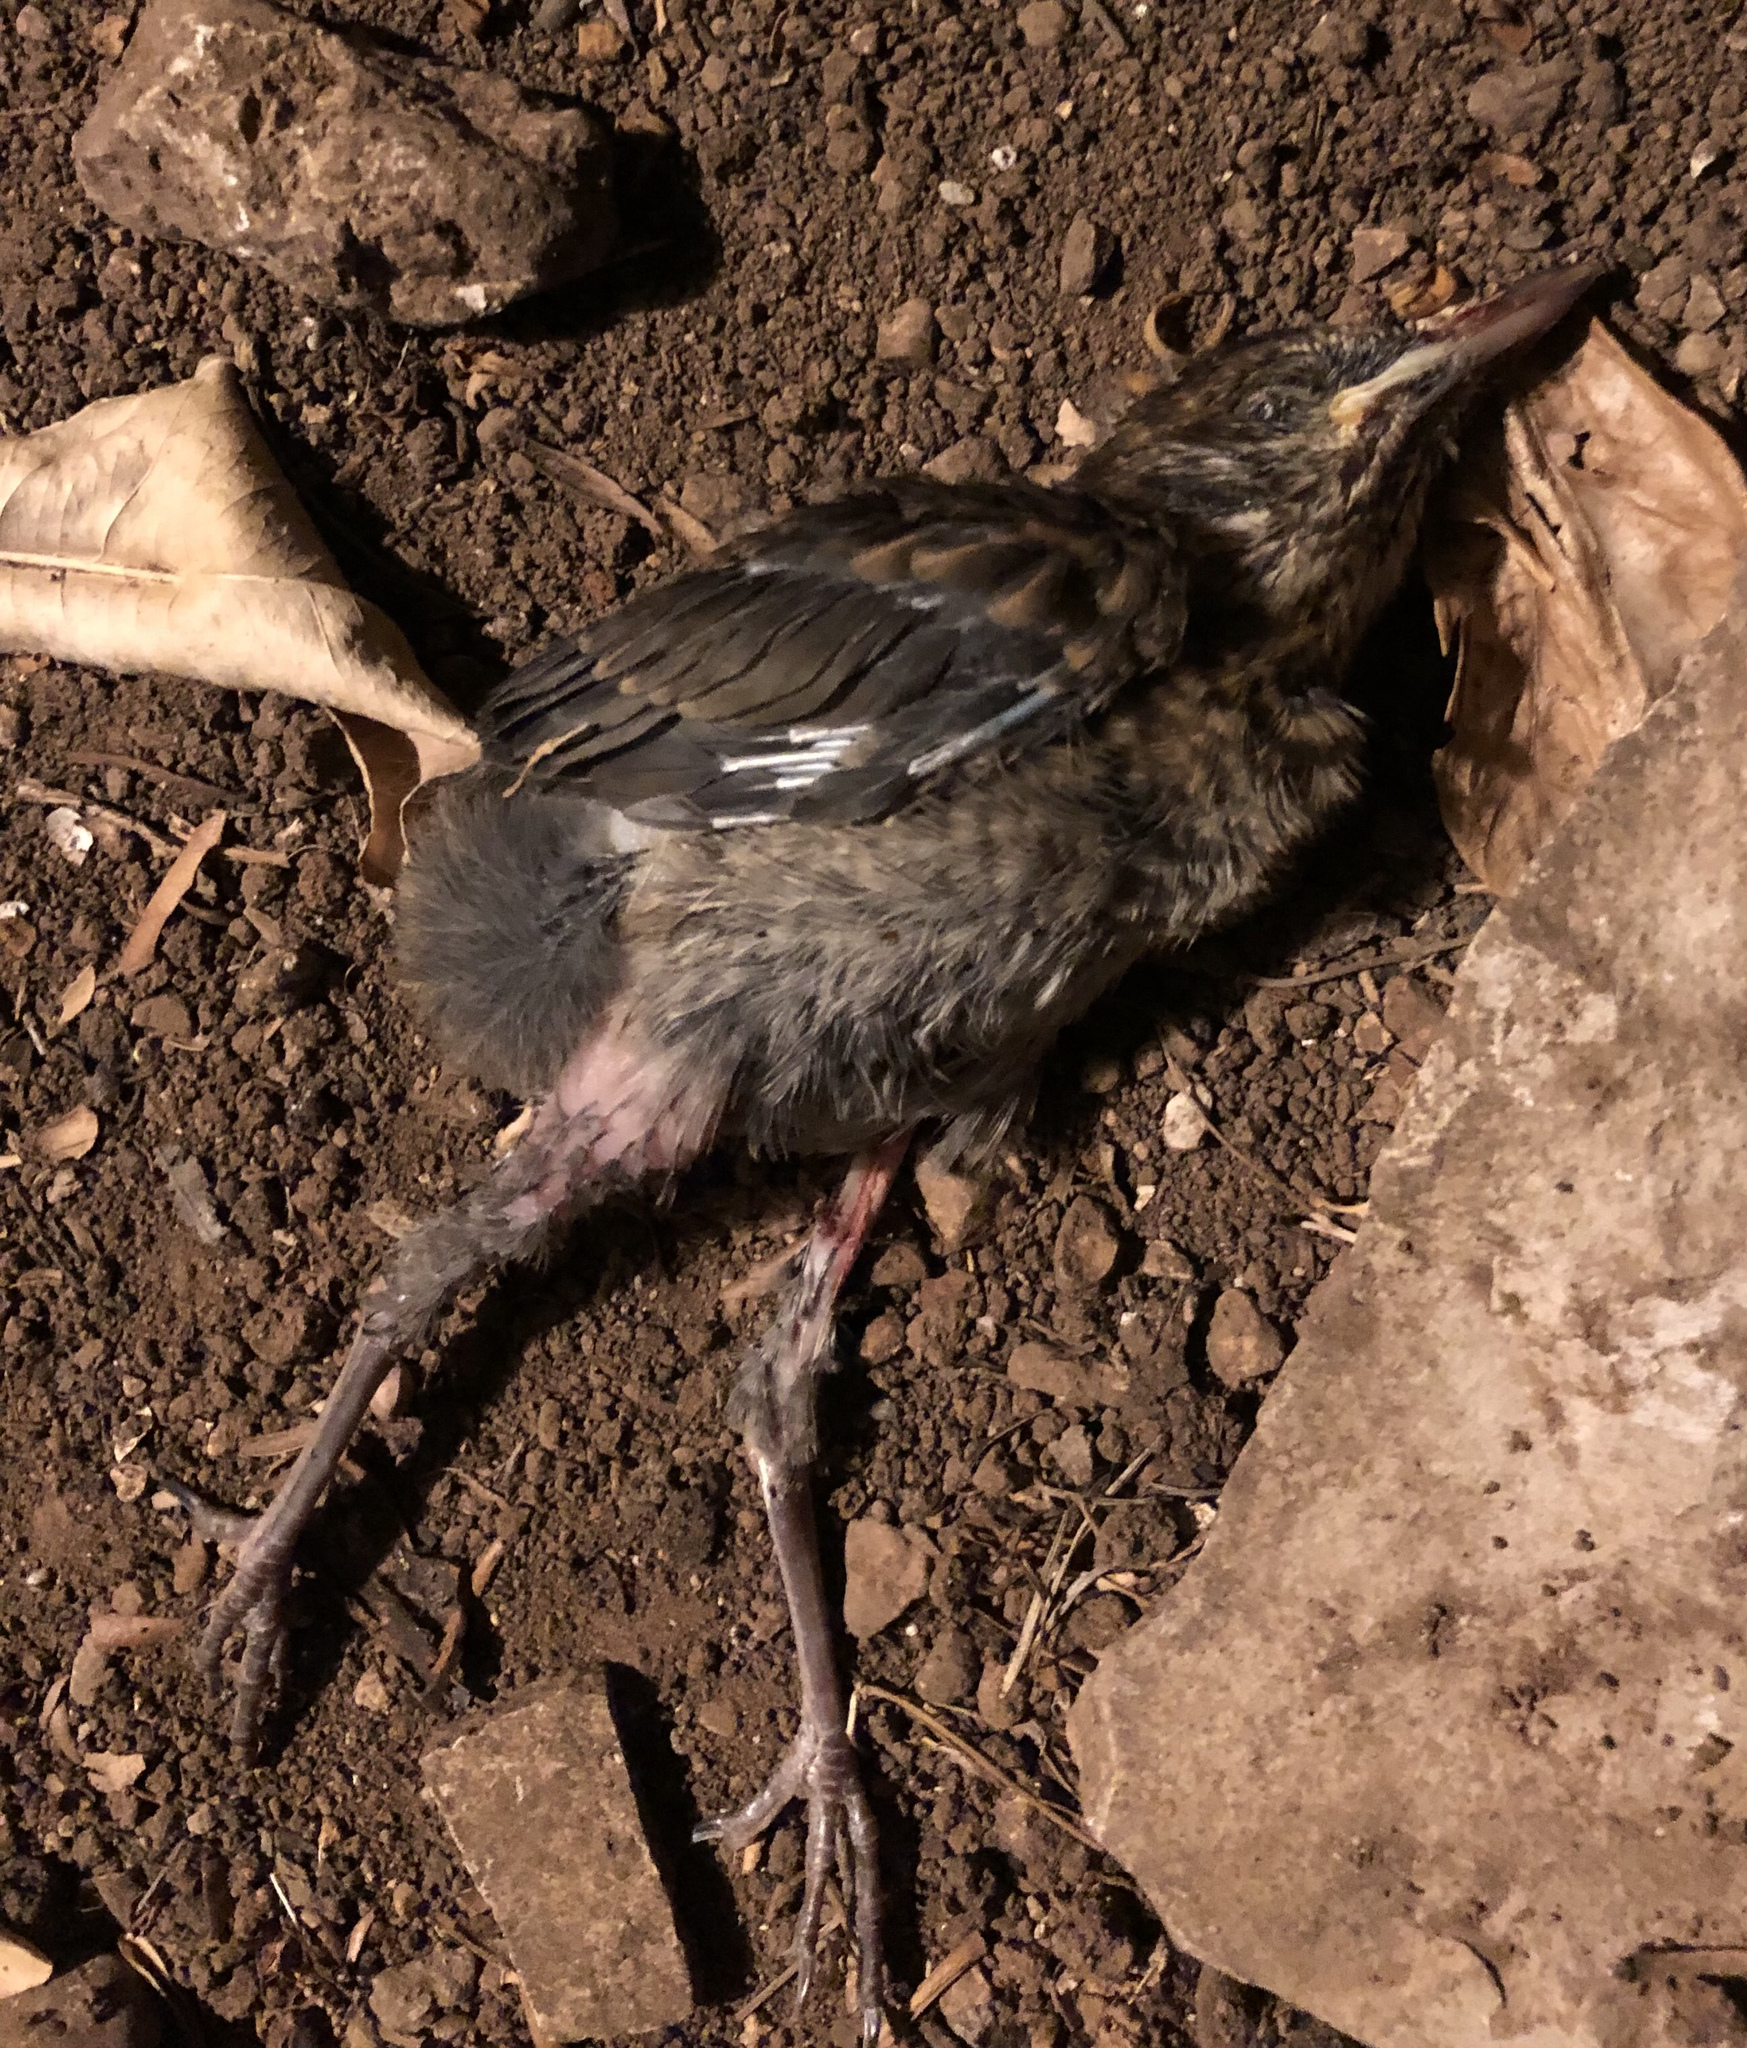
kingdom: Animalia
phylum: Chordata
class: Aves
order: Passeriformes
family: Turdidae
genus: Turdus
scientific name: Turdus merula
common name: Common blackbird
